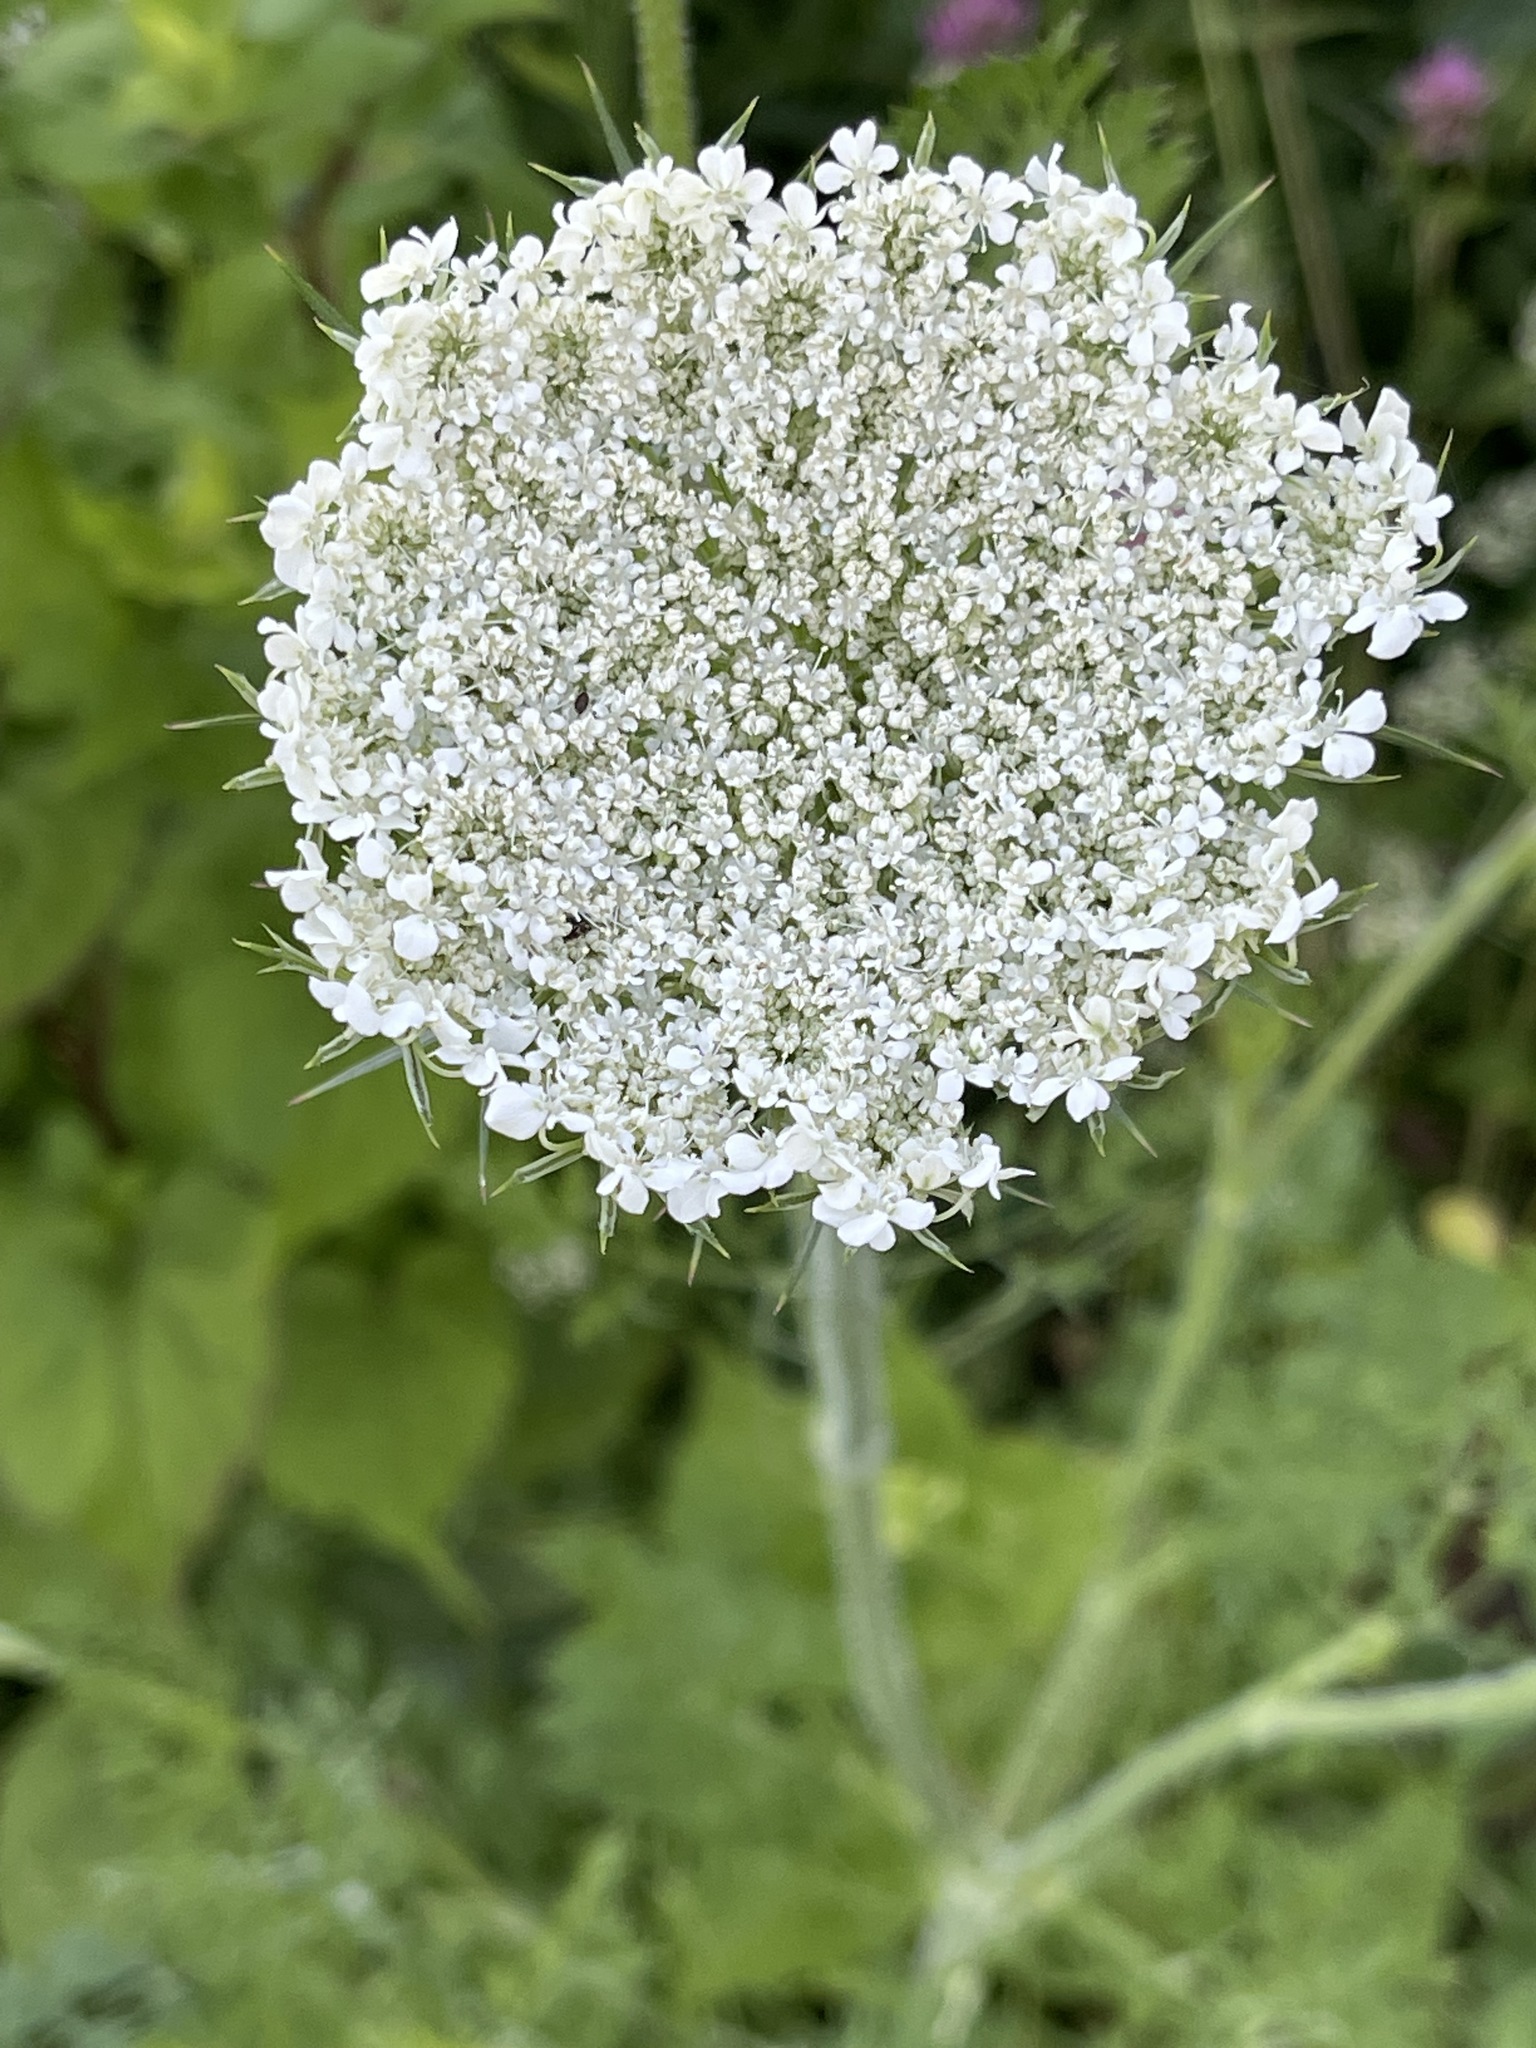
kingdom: Plantae
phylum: Tracheophyta
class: Magnoliopsida
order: Apiales
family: Apiaceae
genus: Daucus
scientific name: Daucus carota
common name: Wild carrot
